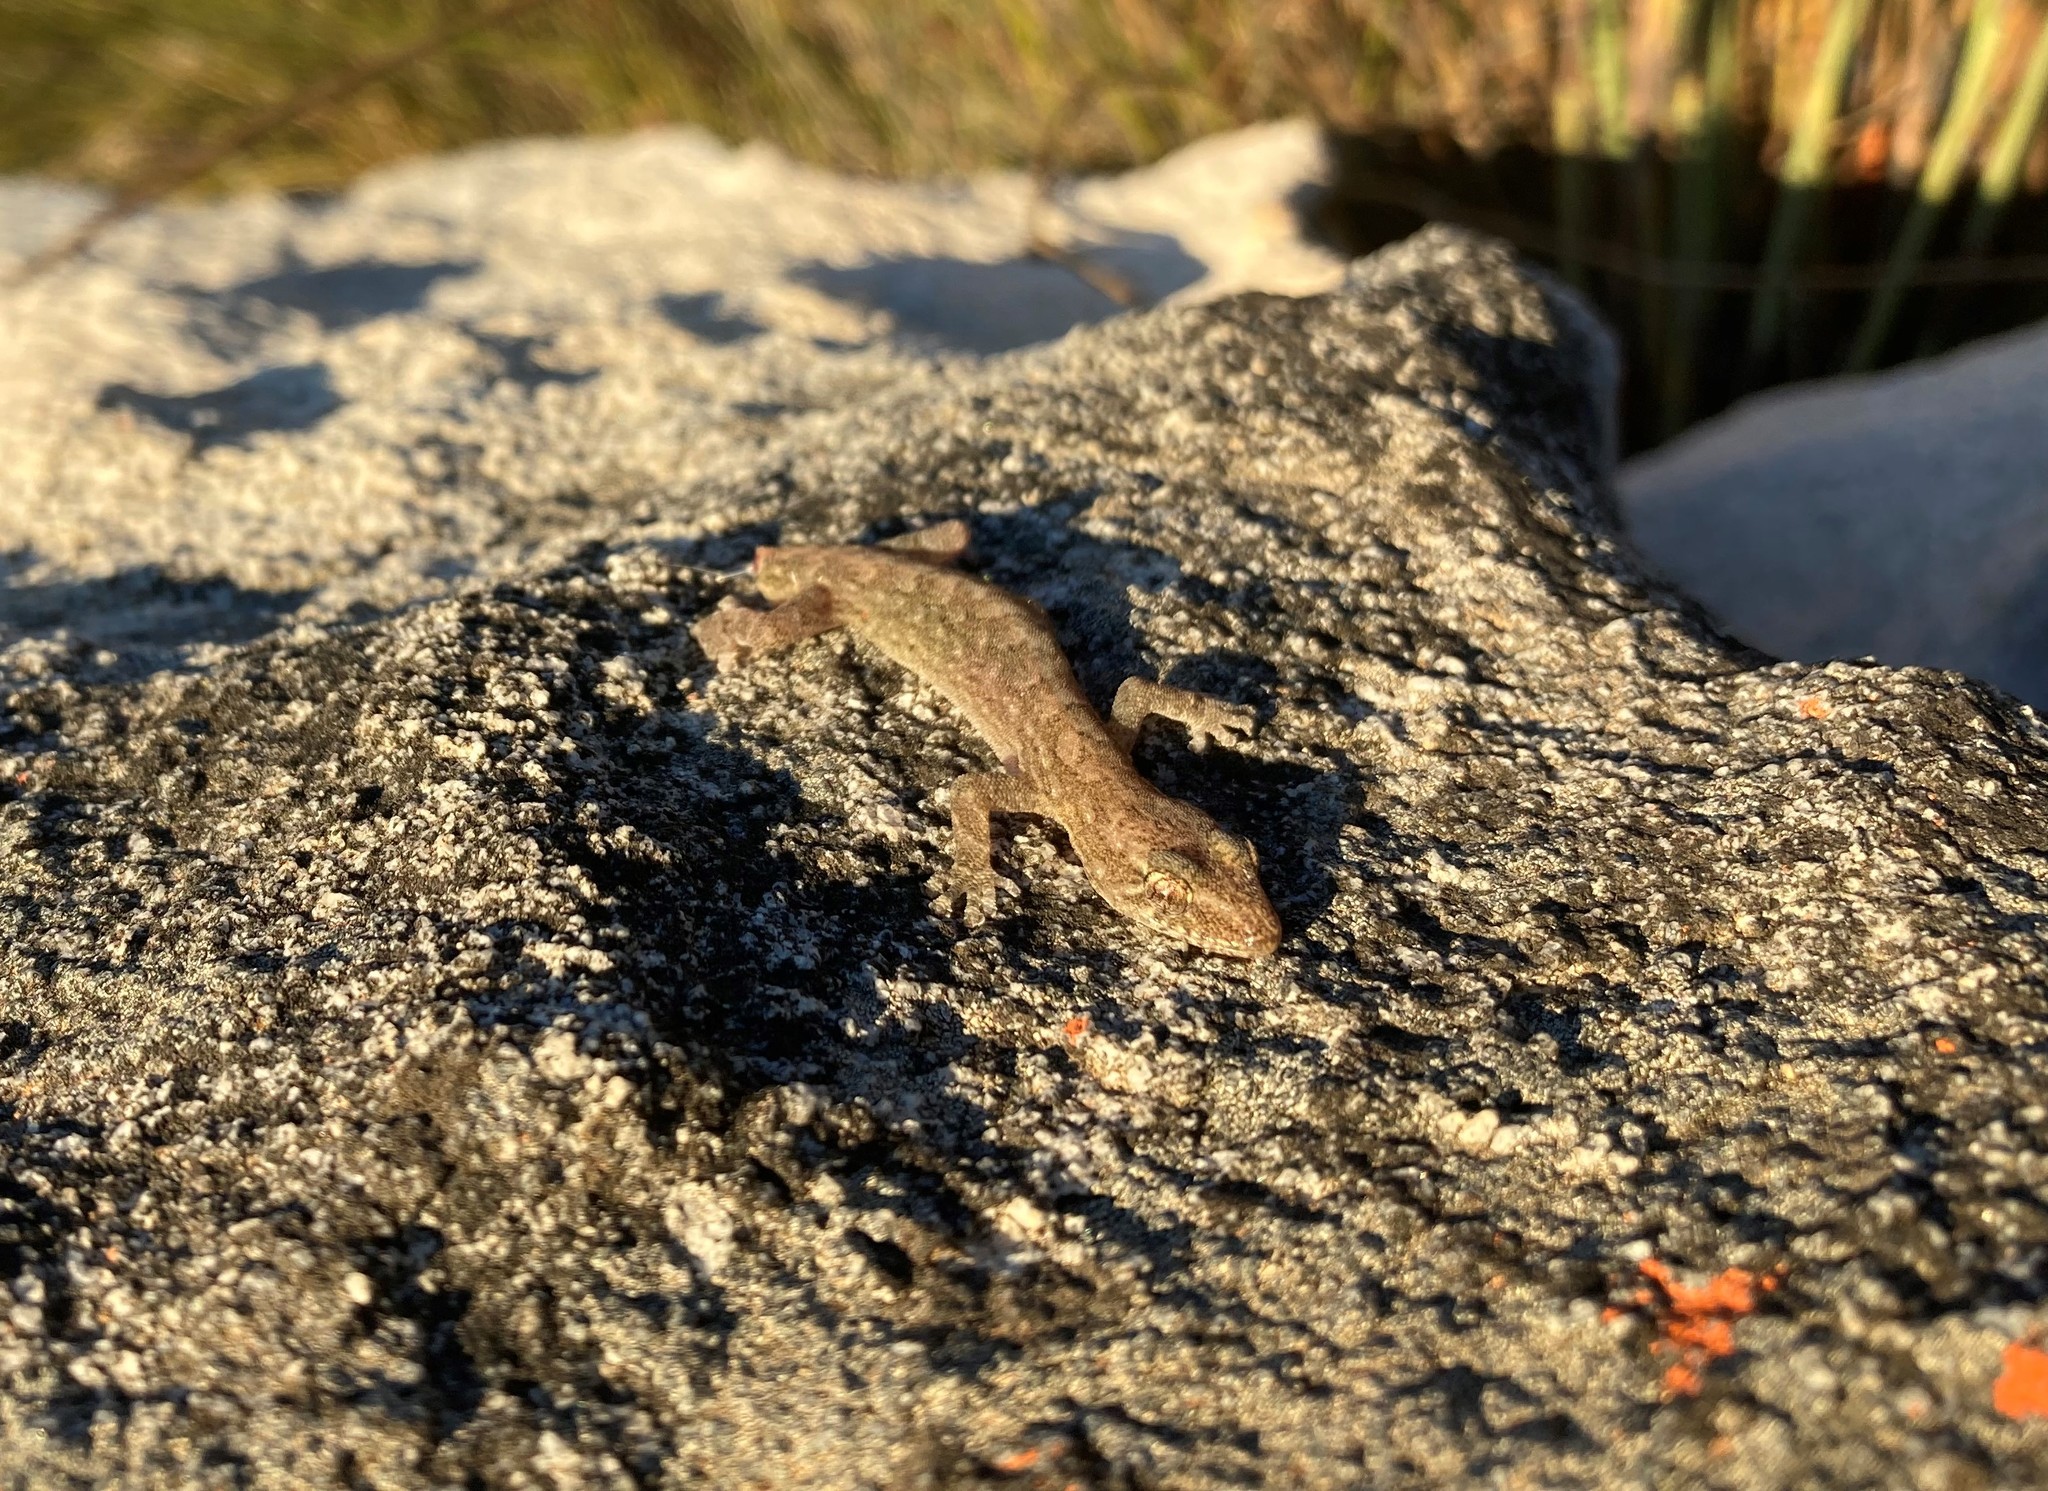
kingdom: Animalia
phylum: Chordata
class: Squamata
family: Gekkonidae
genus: Afrogecko
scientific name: Afrogecko porphyreus
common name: Marbled leaf-toed gecko
